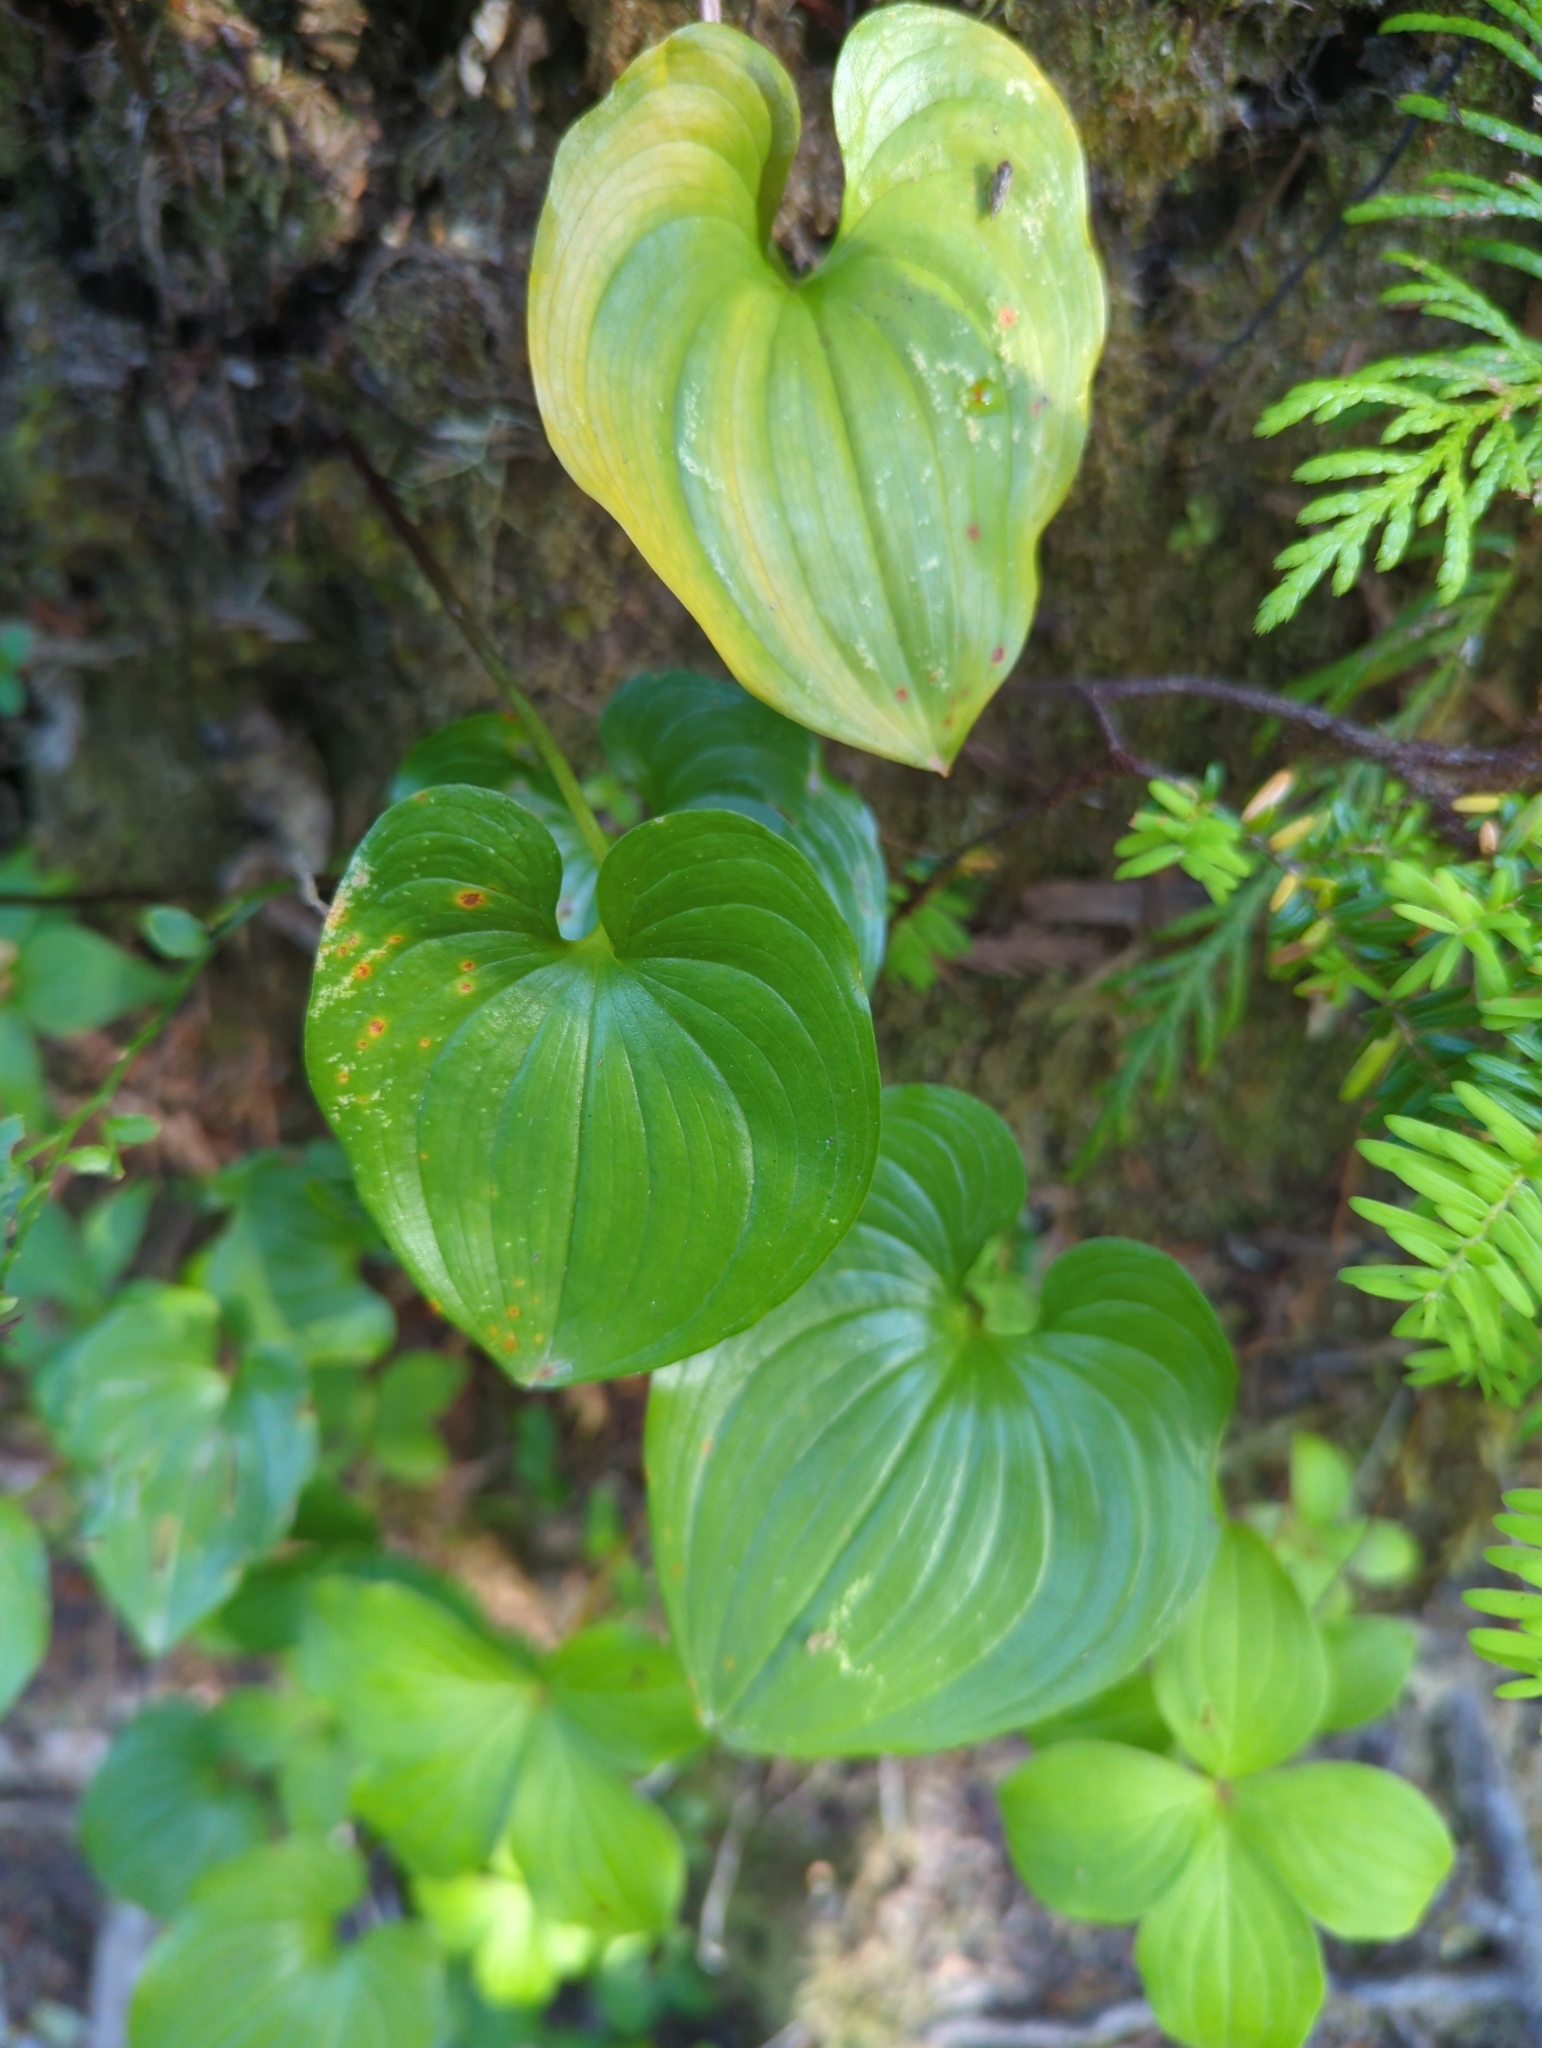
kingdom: Plantae
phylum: Tracheophyta
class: Liliopsida
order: Asparagales
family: Asparagaceae
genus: Maianthemum
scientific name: Maianthemum dilatatum
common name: False lily-of-the-valley
